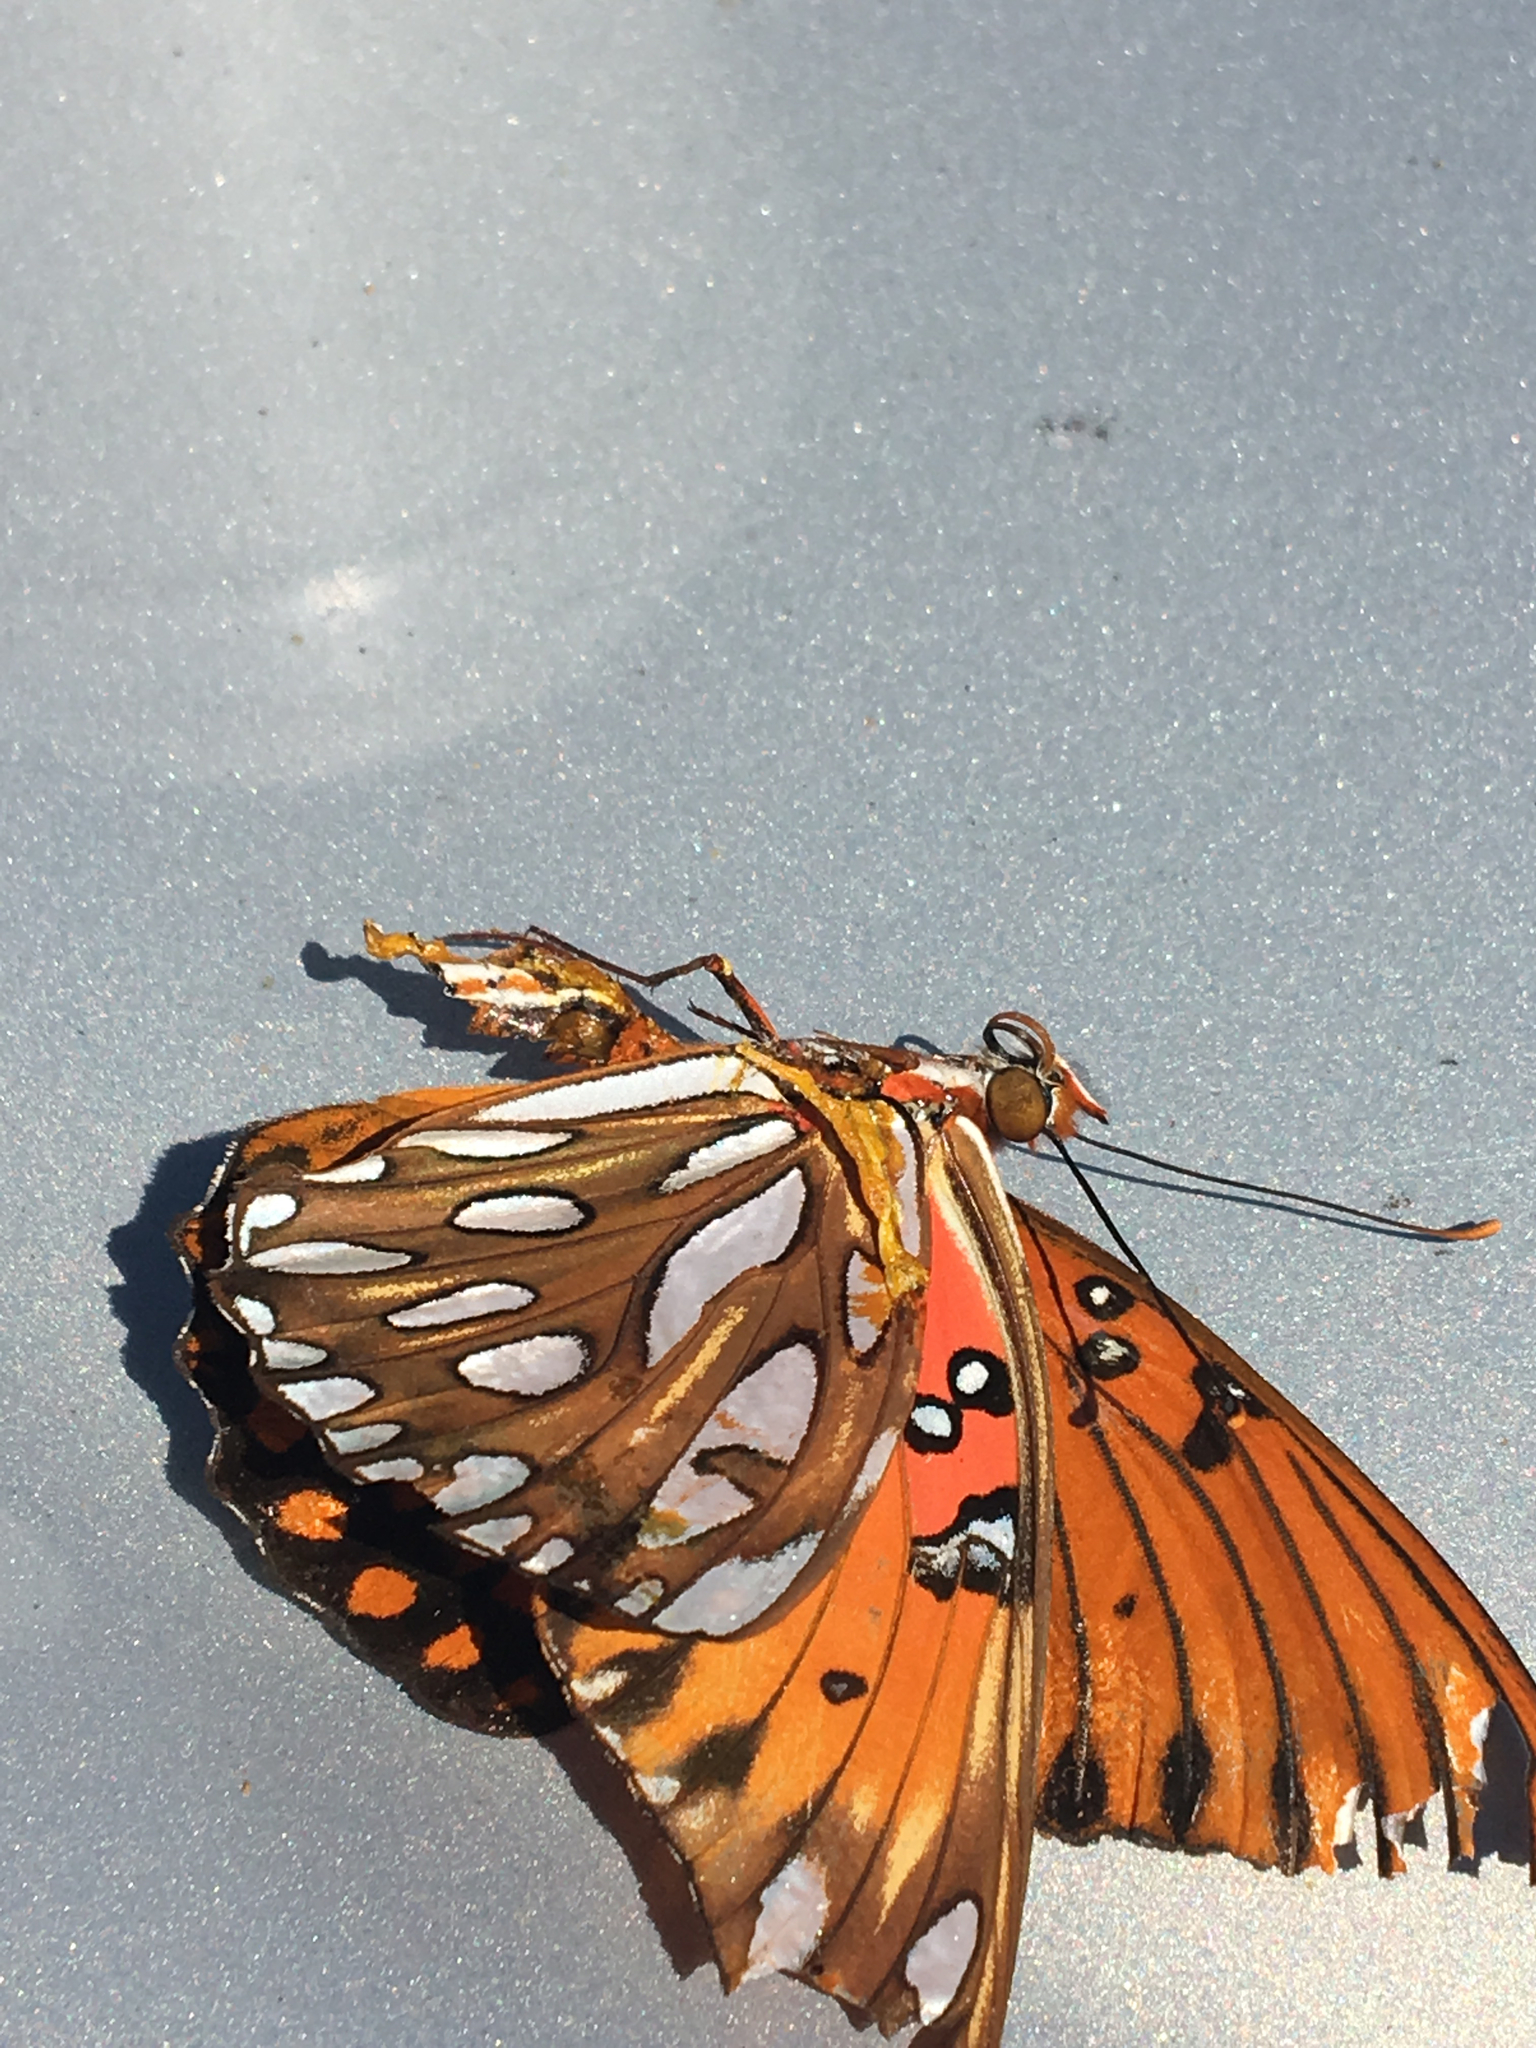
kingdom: Animalia
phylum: Arthropoda
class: Insecta
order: Lepidoptera
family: Nymphalidae
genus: Dione
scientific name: Dione vanillae
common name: Gulf fritillary
